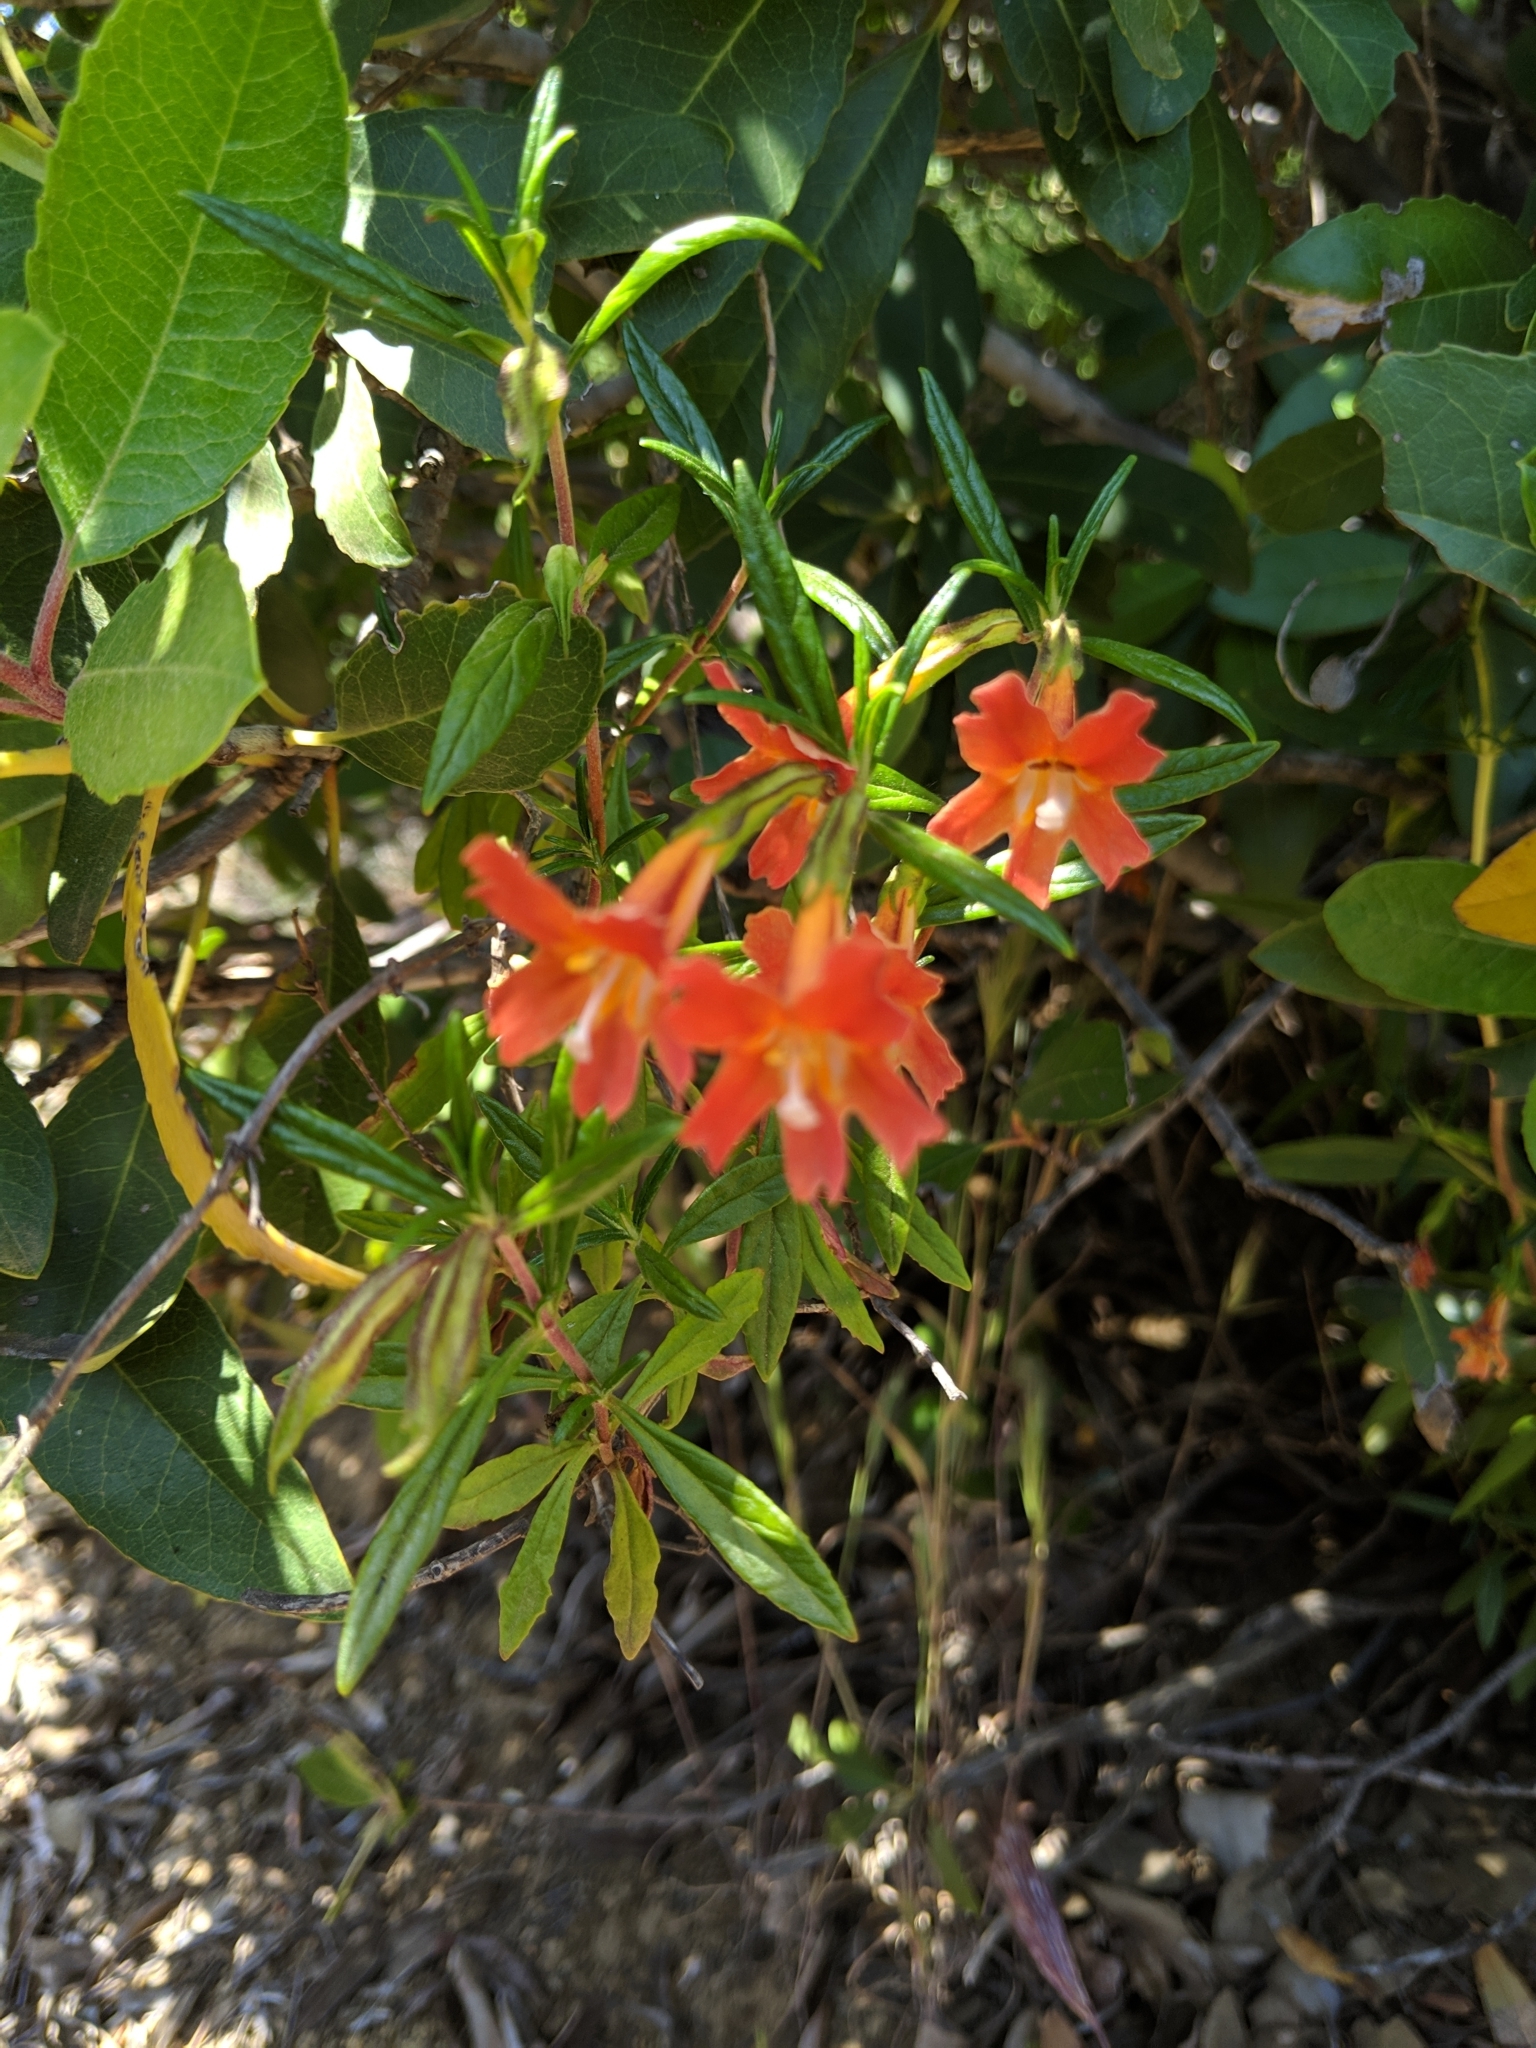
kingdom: Plantae
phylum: Tracheophyta
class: Magnoliopsida
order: Lamiales
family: Phrymaceae
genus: Diplacus
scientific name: Diplacus puniceus
